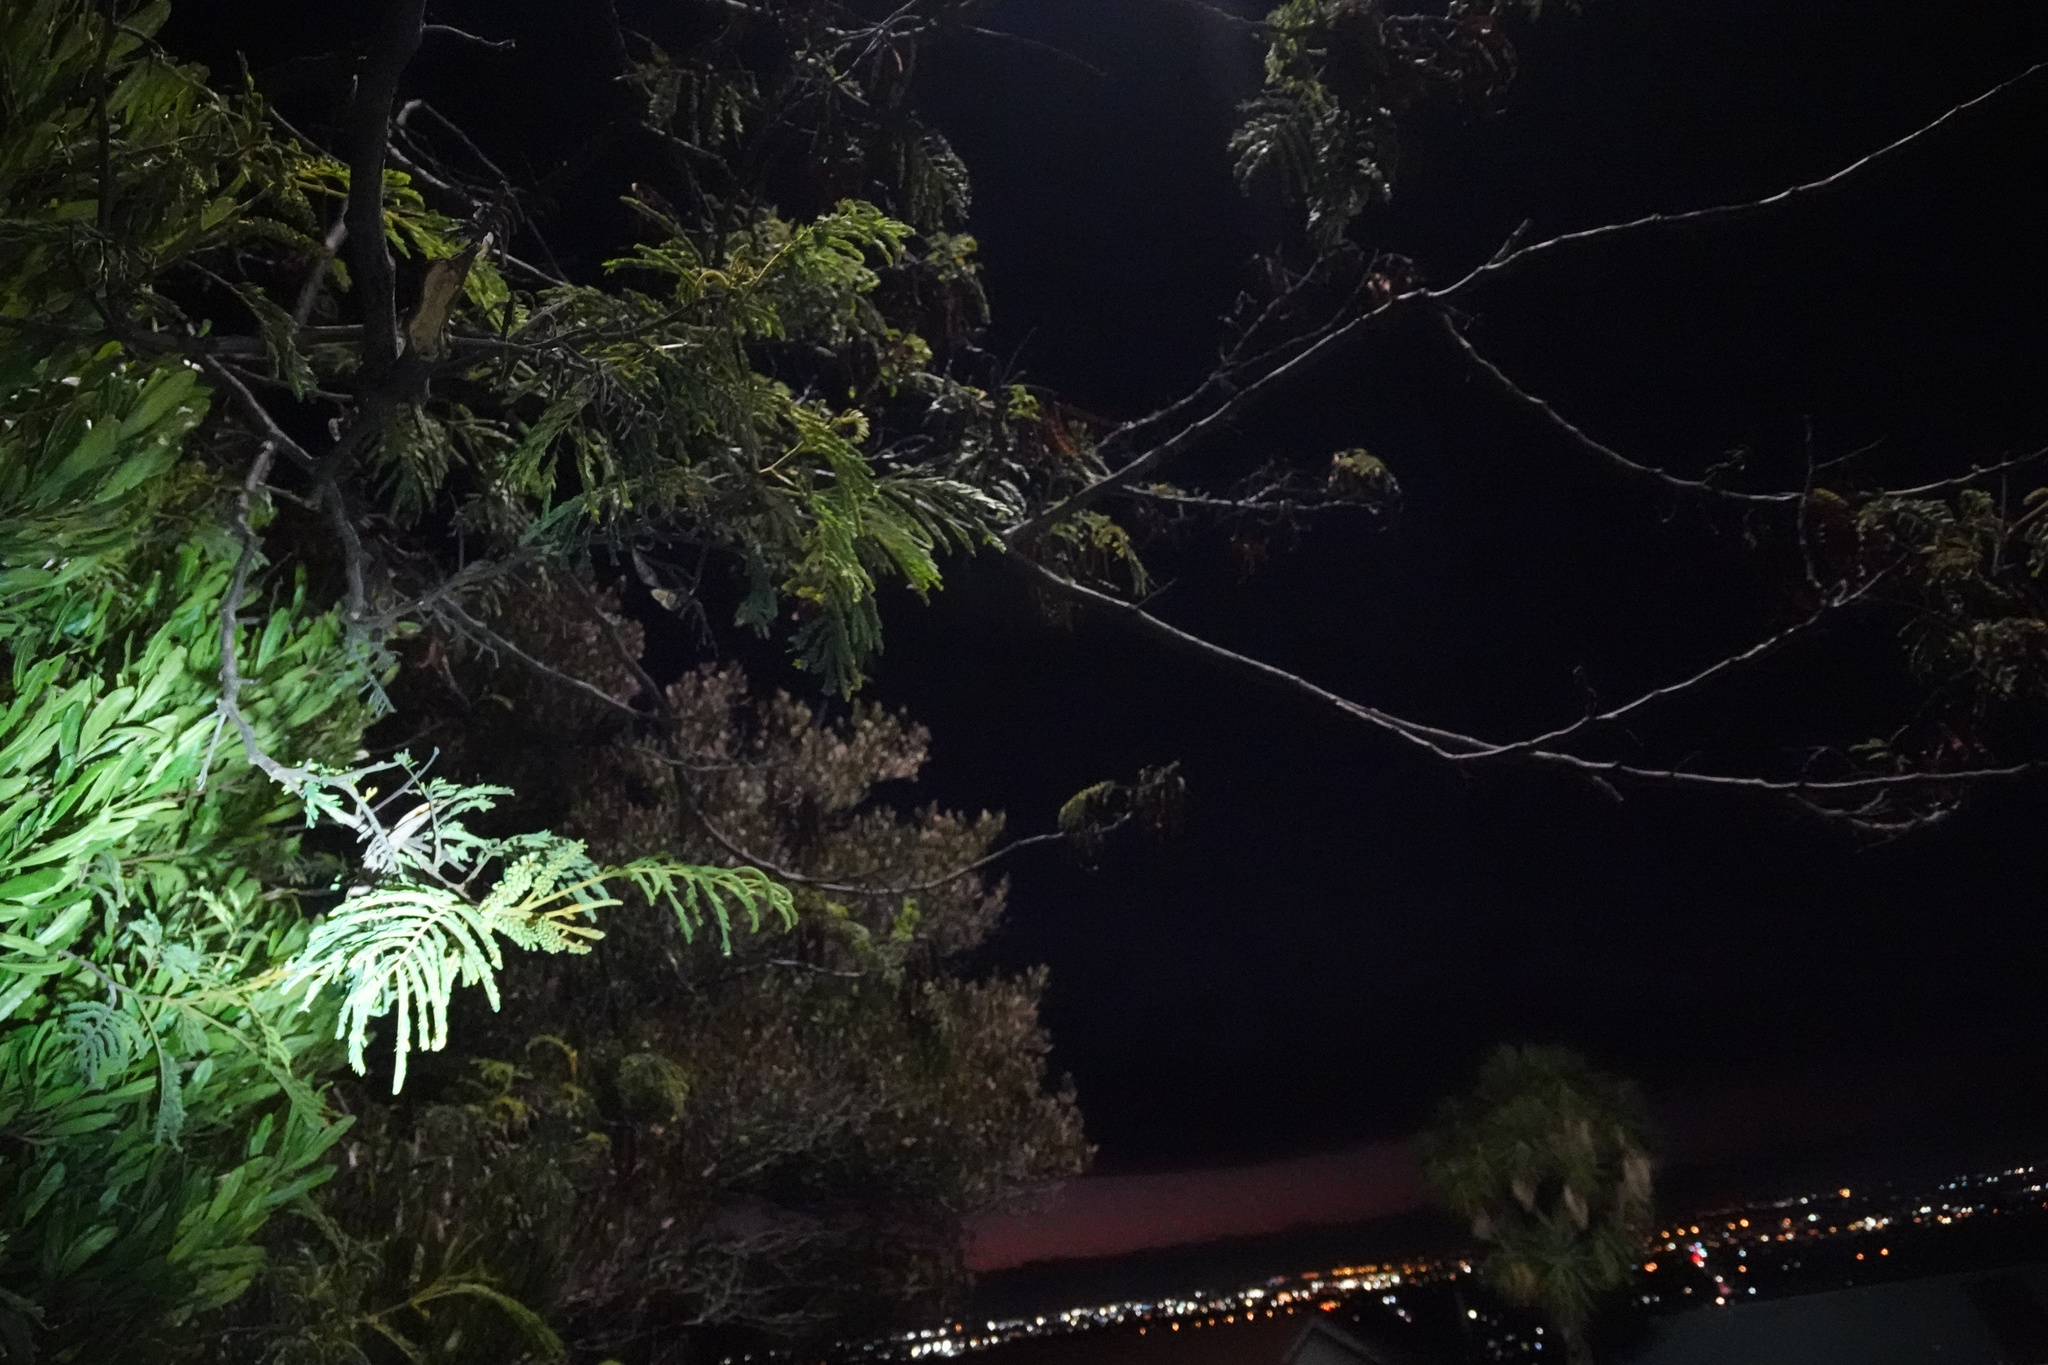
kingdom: Plantae
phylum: Tracheophyta
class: Magnoliopsida
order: Fabales
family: Fabaceae
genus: Paraserianthes
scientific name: Paraserianthes lophantha
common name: Plume albizia
